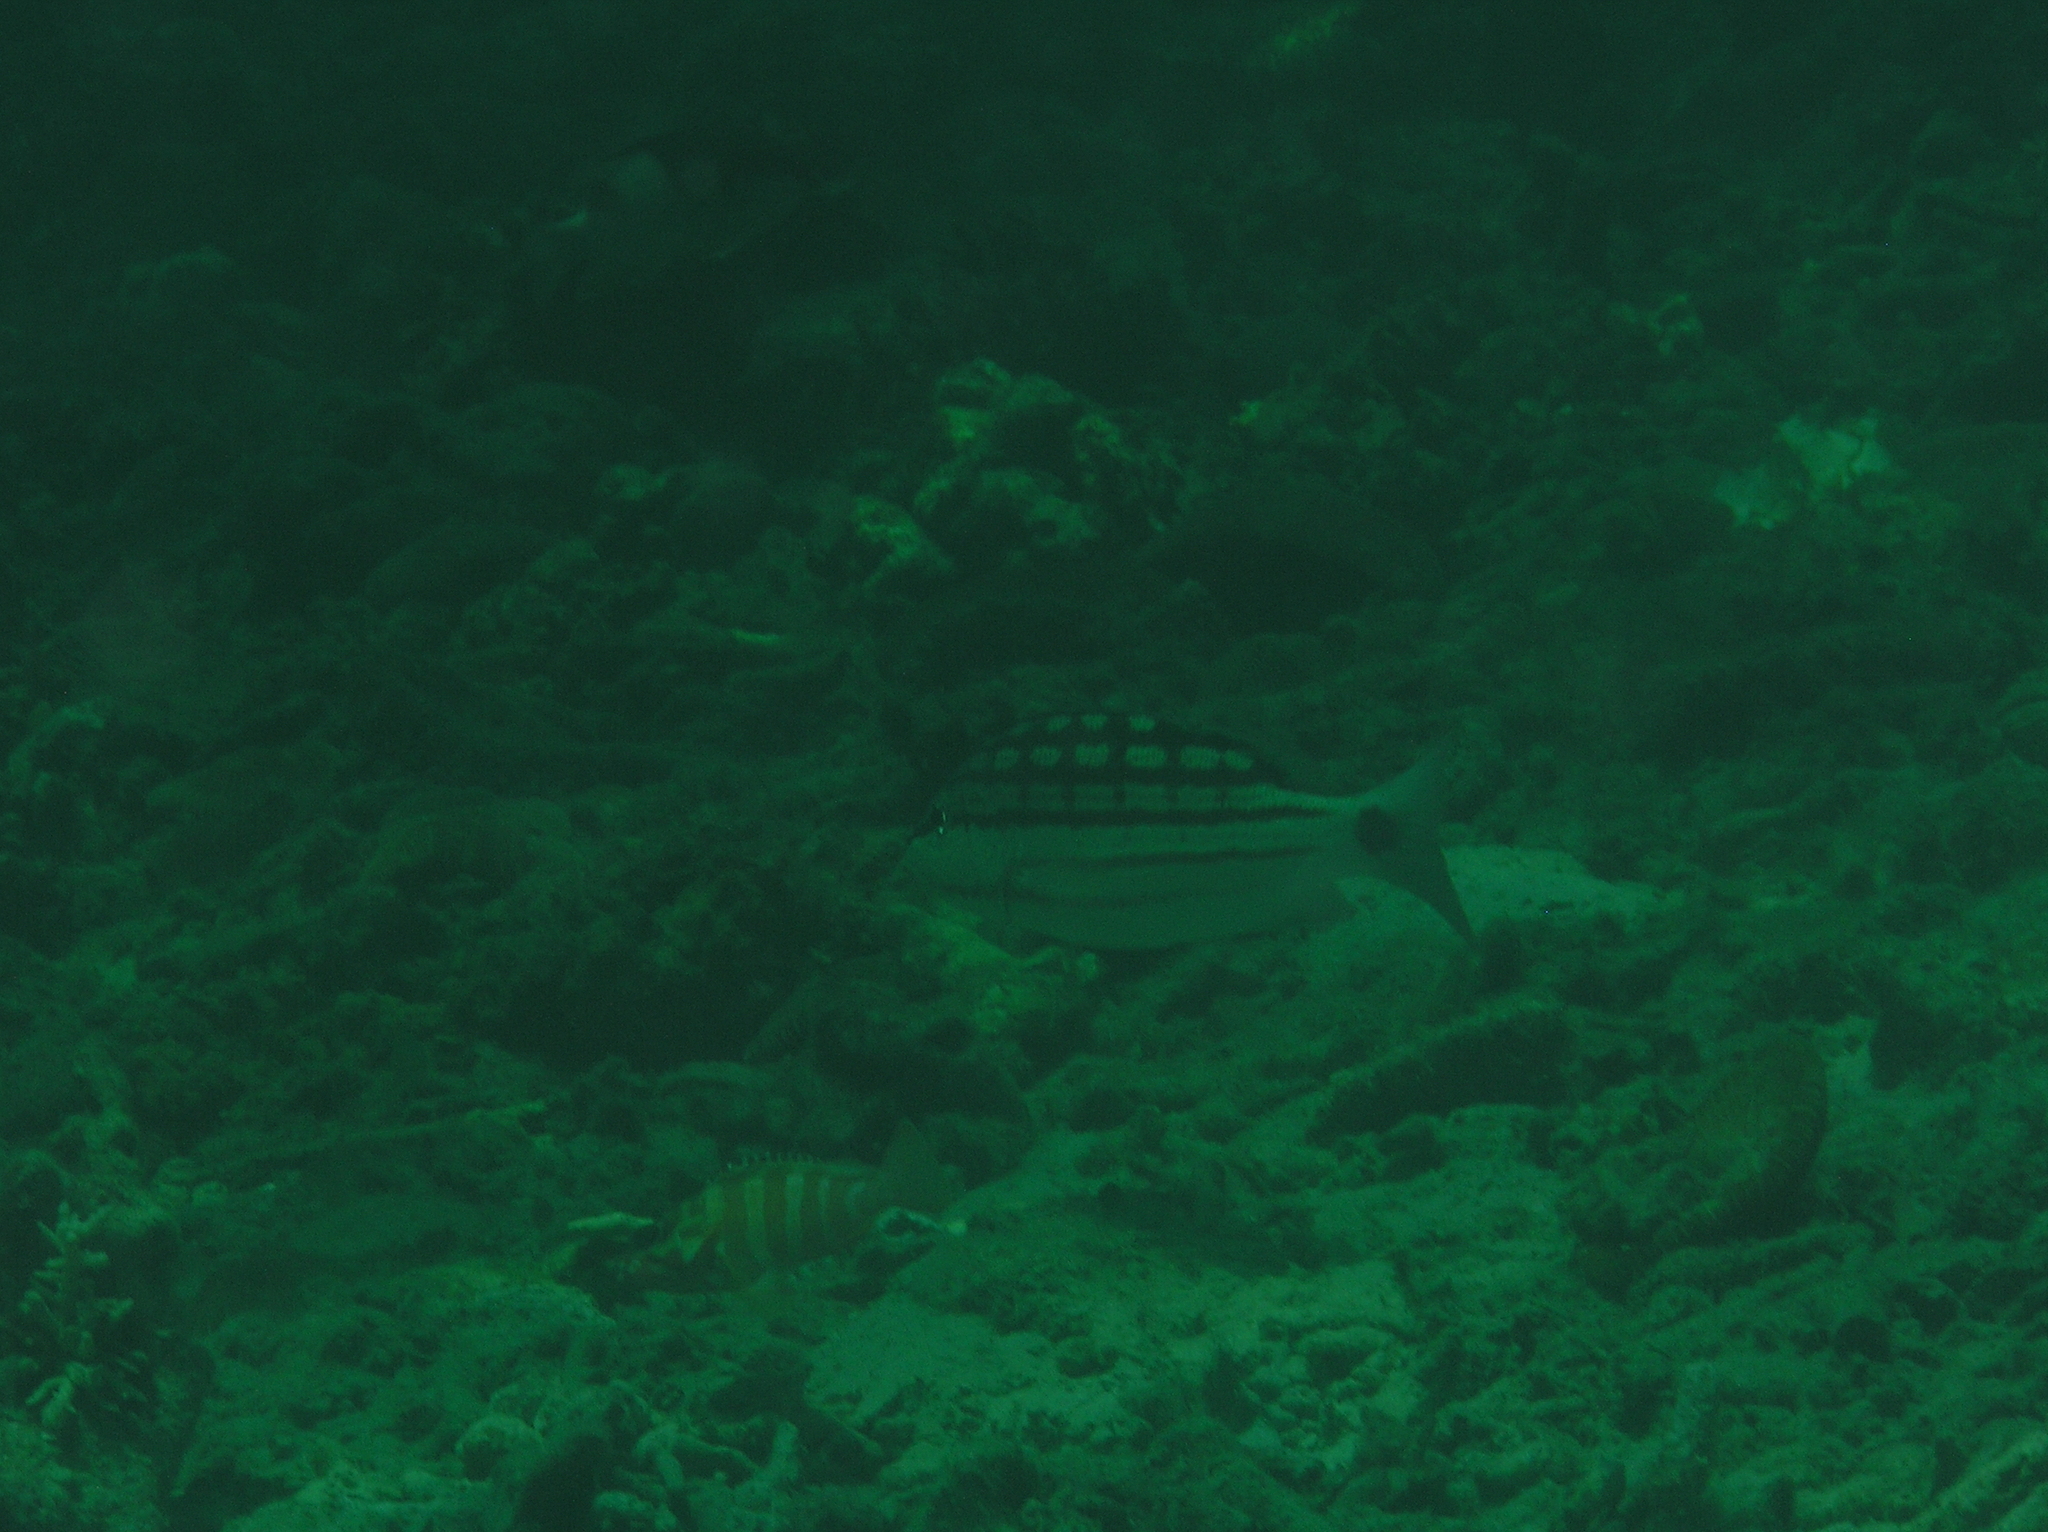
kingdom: Animalia
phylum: Chordata
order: Perciformes
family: Lutjanidae
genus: Lutjanus
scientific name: Lutjanus decussatus
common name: Checkered snapper
